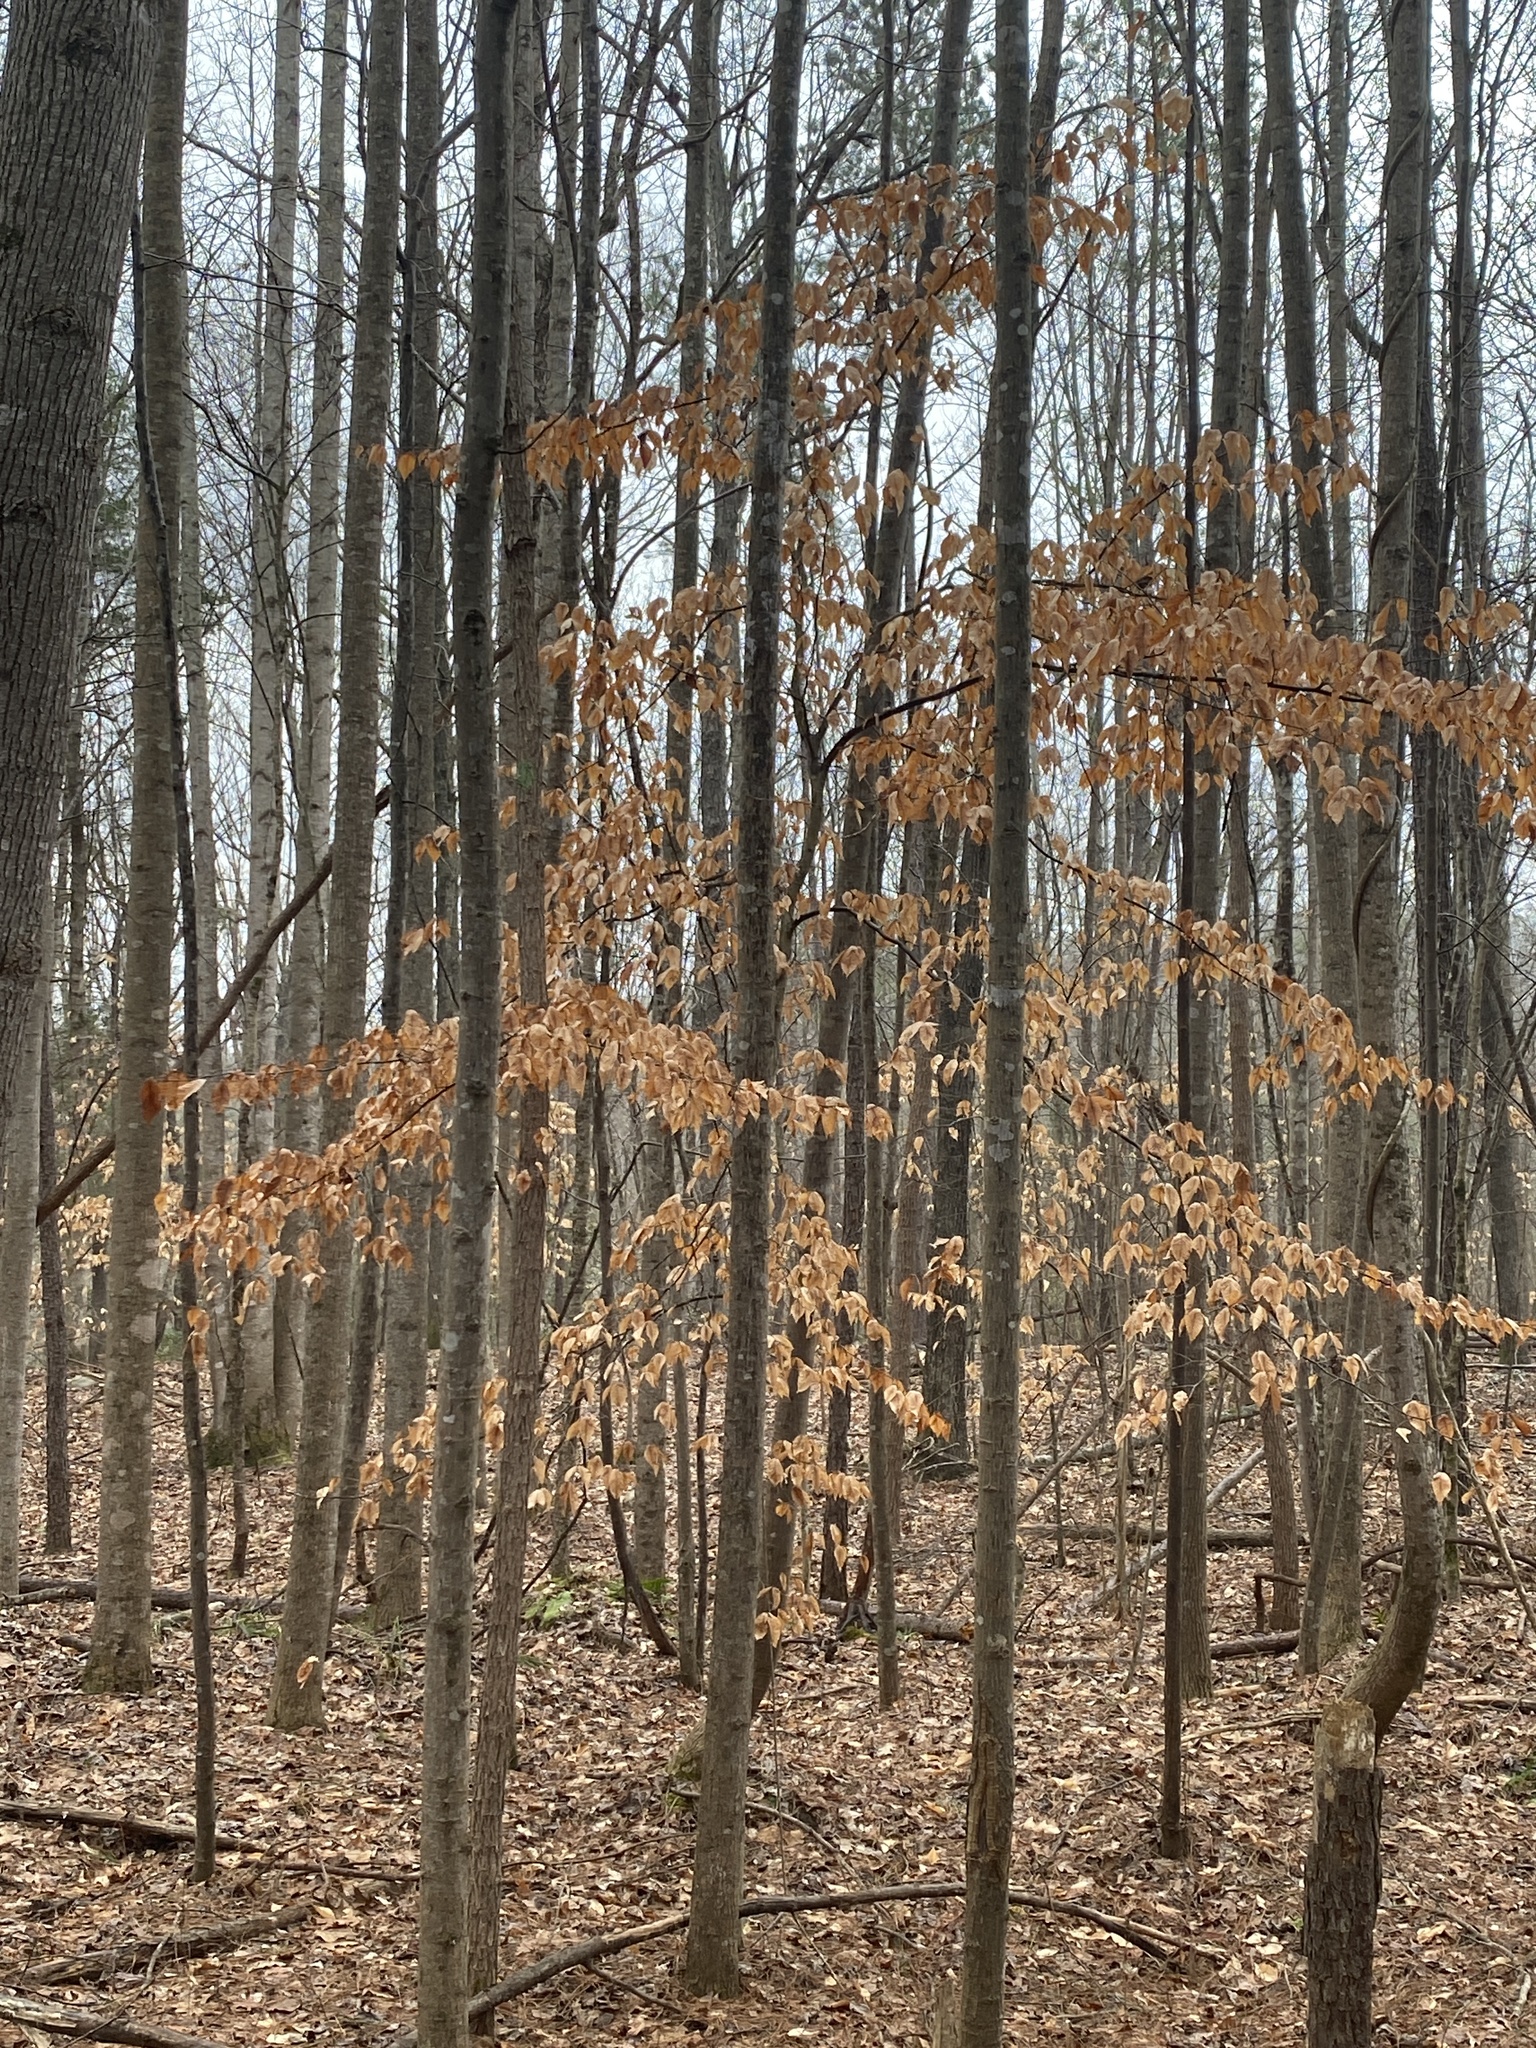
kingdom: Plantae
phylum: Tracheophyta
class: Magnoliopsida
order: Fagales
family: Fagaceae
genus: Fagus
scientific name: Fagus grandifolia
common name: American beech
